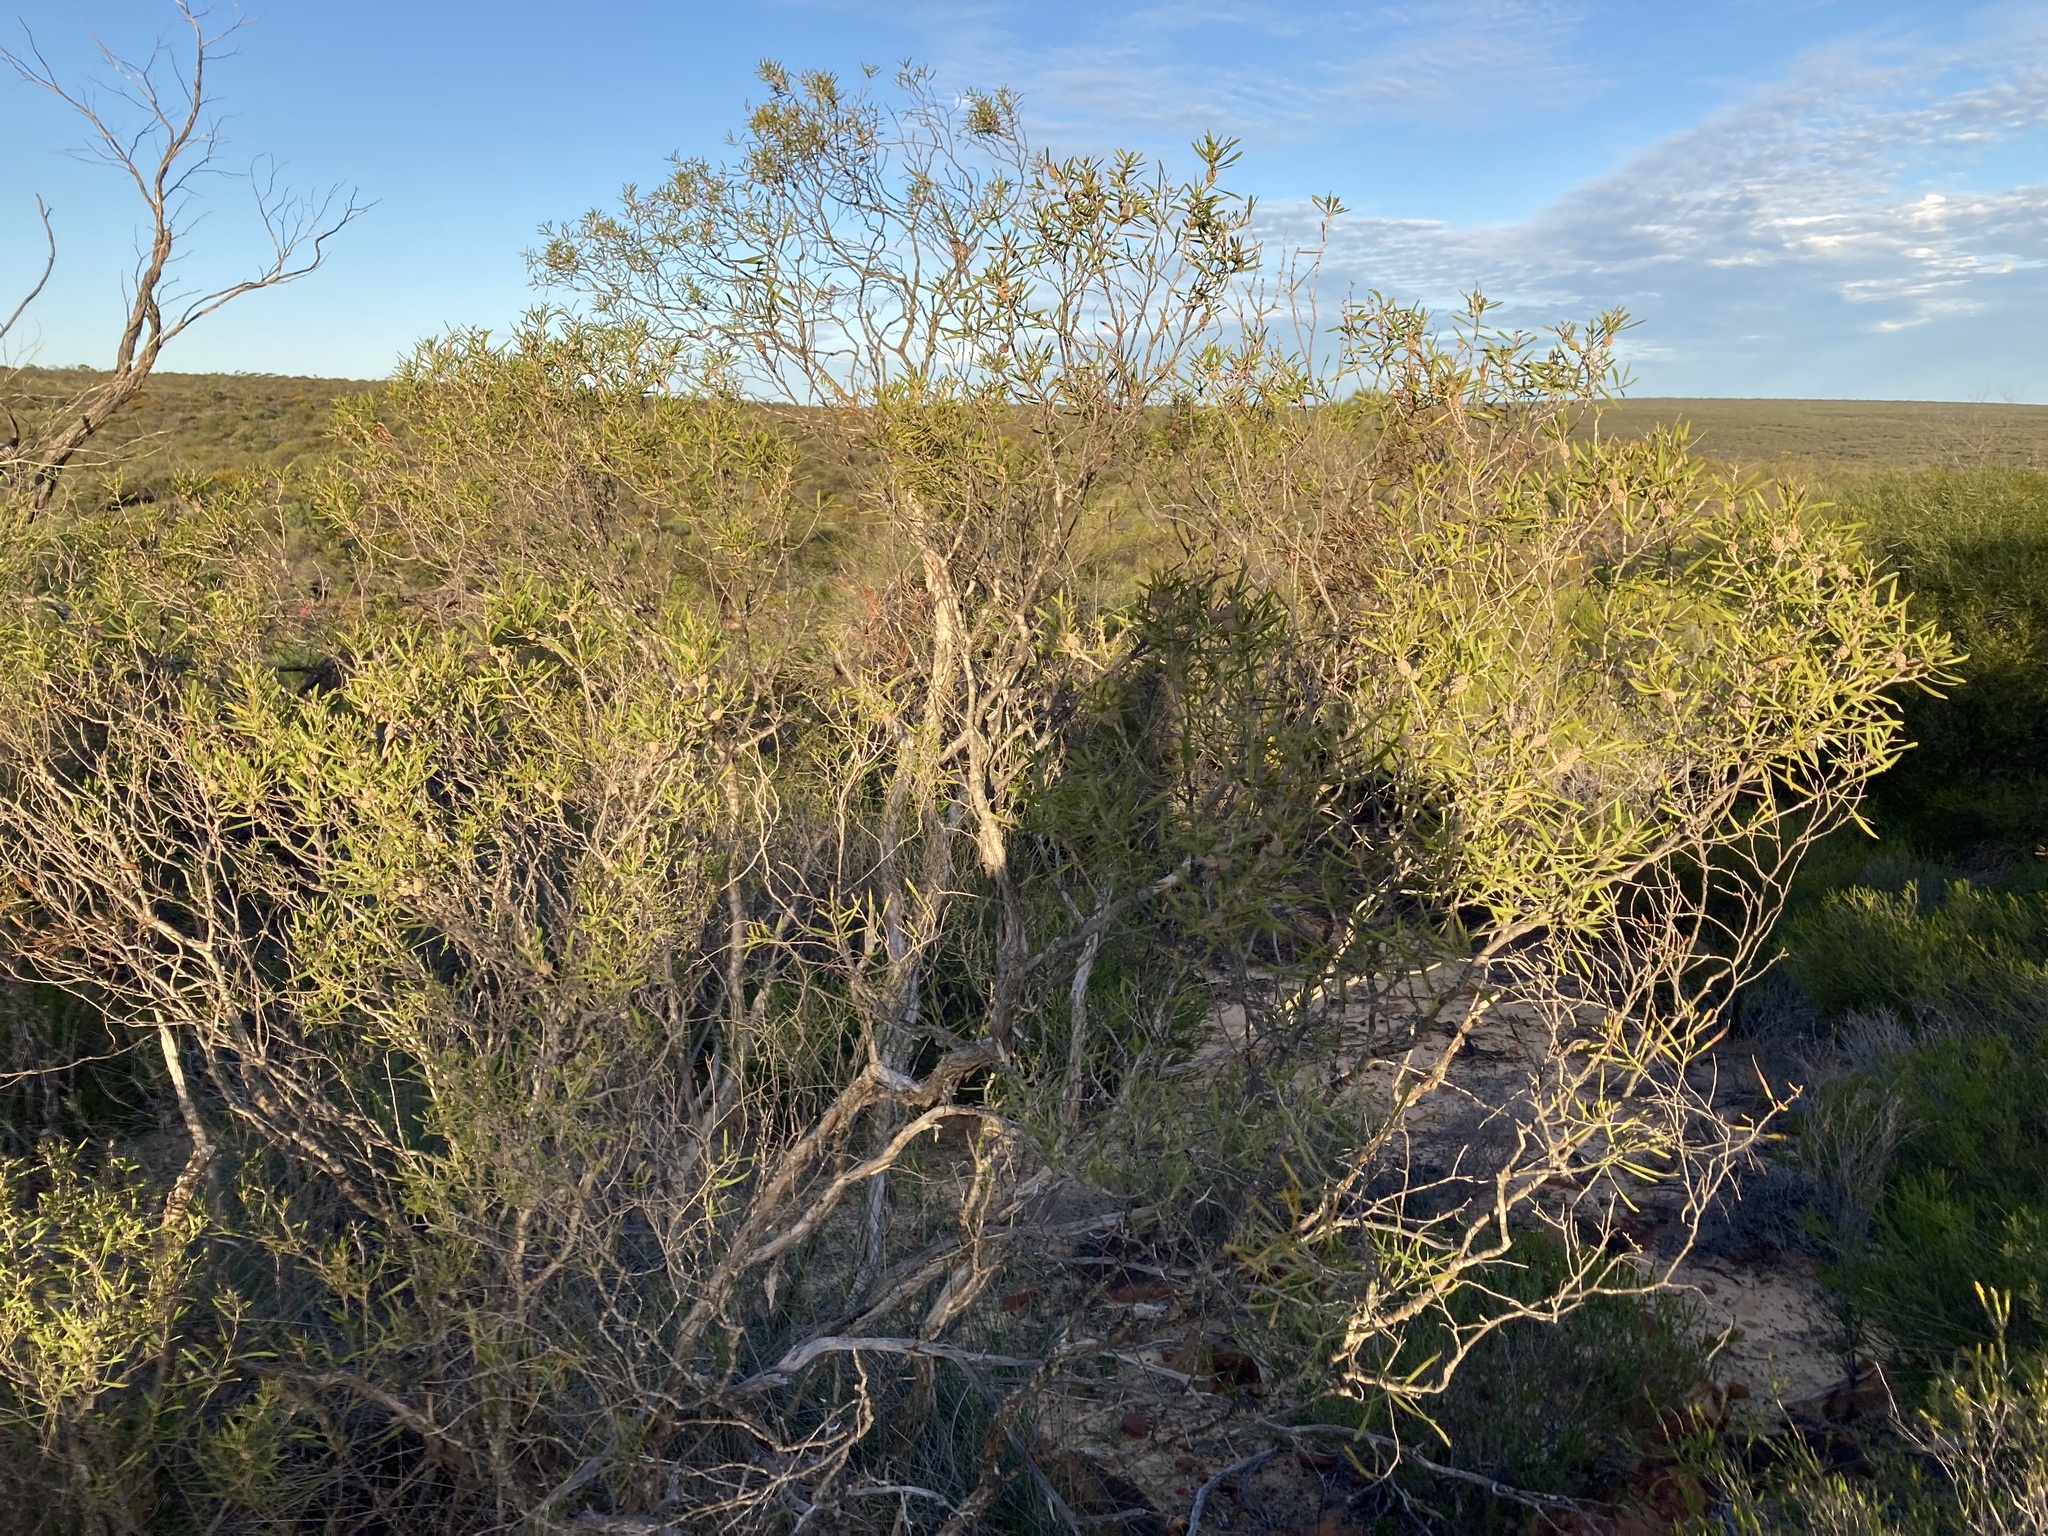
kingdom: Plantae
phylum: Tracheophyta
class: Magnoliopsida
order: Myrtales
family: Myrtaceae
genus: Melaleuca
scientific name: Melaleuca campanae
